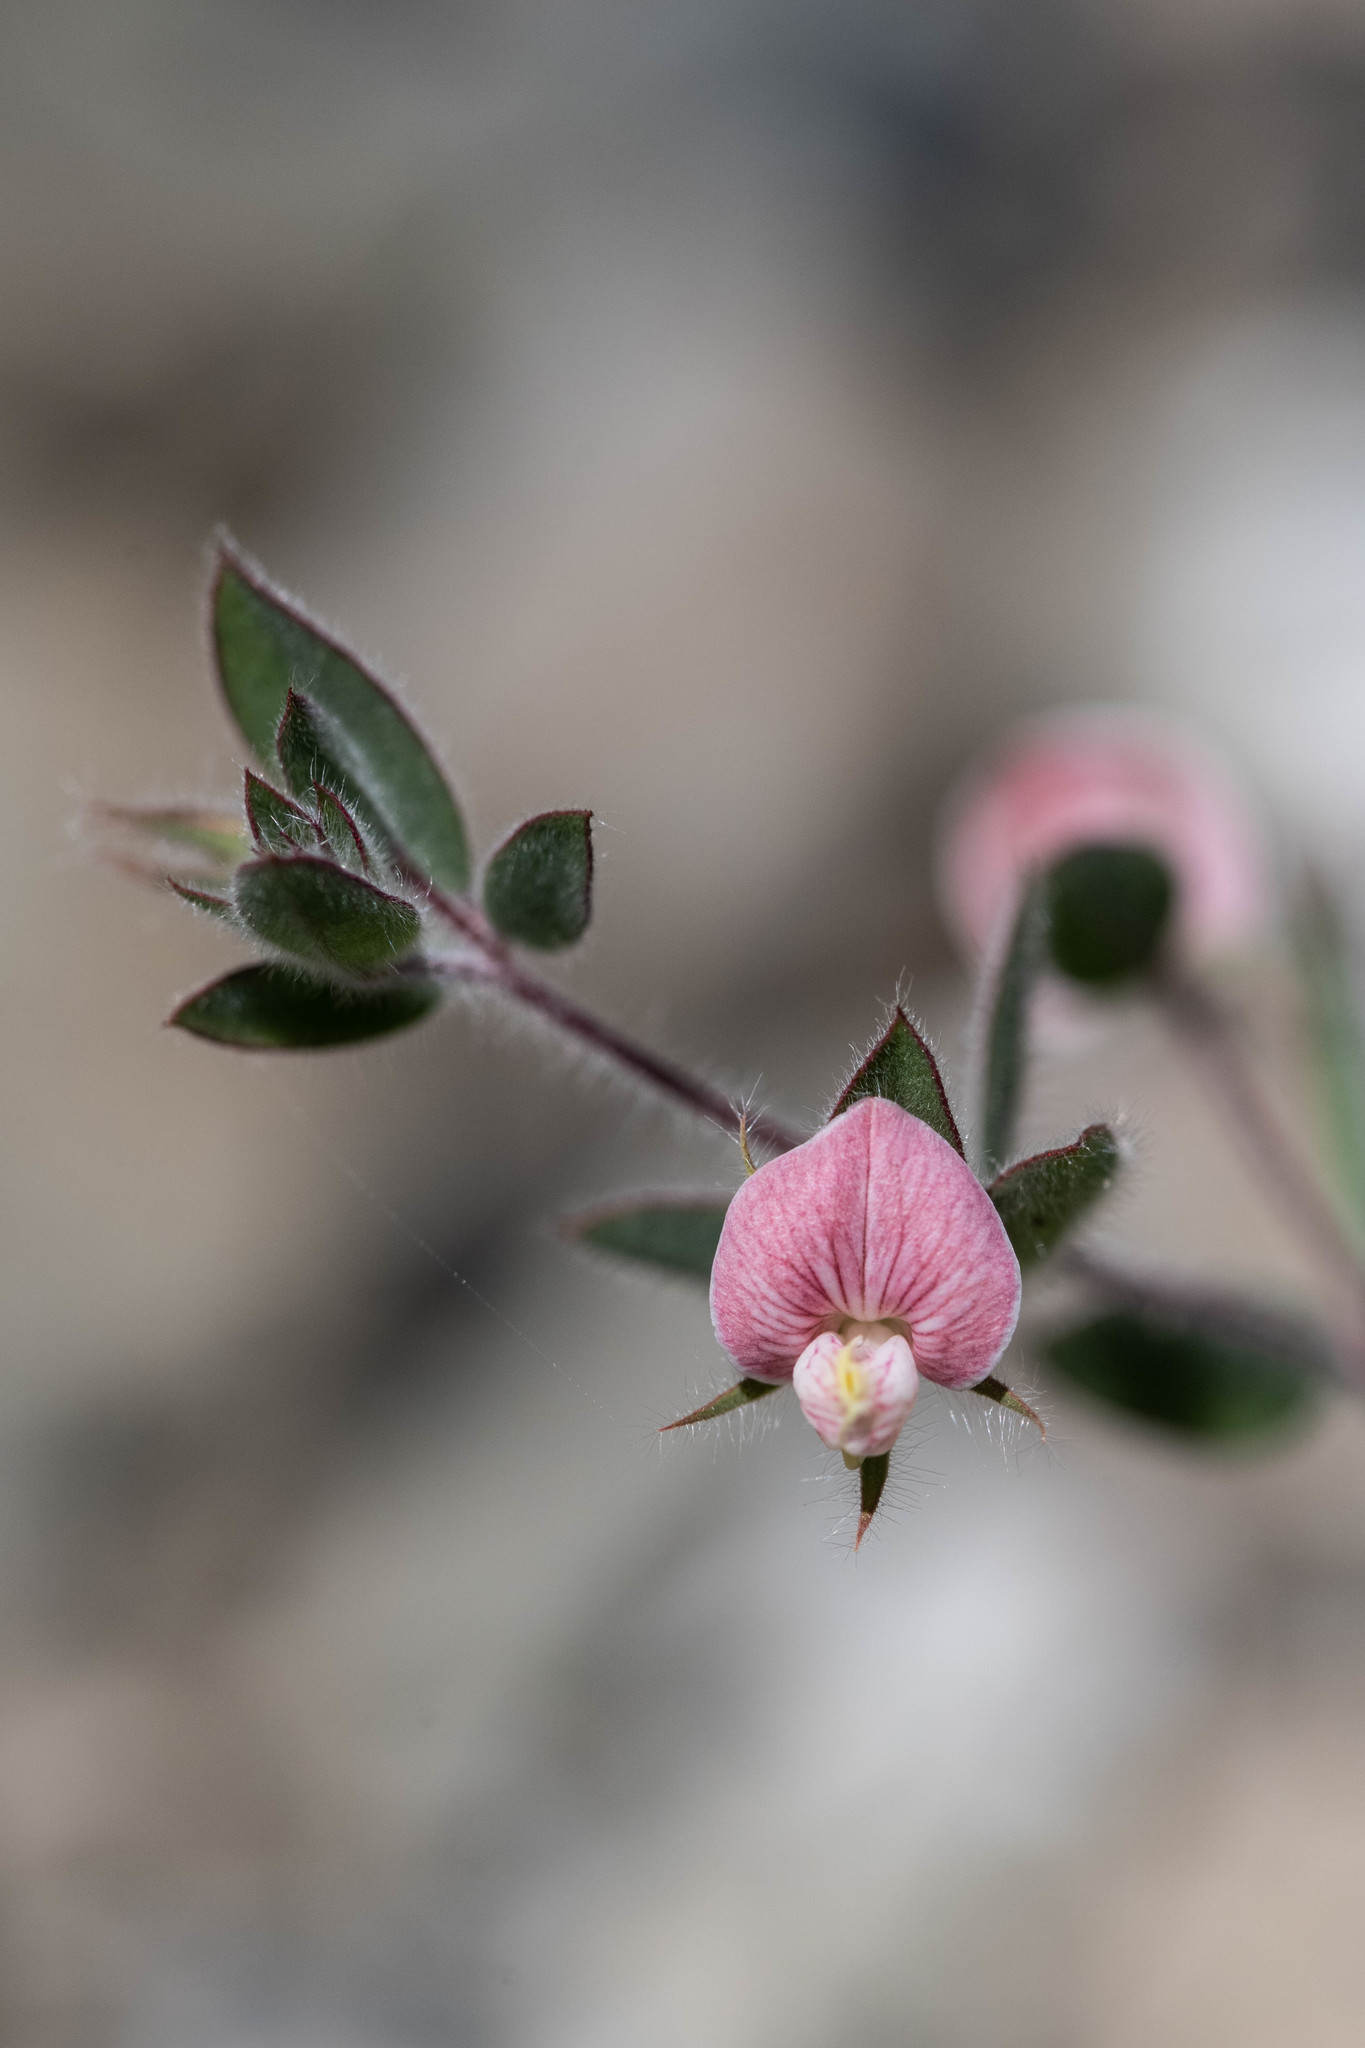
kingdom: Plantae
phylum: Tracheophyta
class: Magnoliopsida
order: Fabales
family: Fabaceae
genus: Acmispon
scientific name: Acmispon americanus
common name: American bird's-foot trefoil
